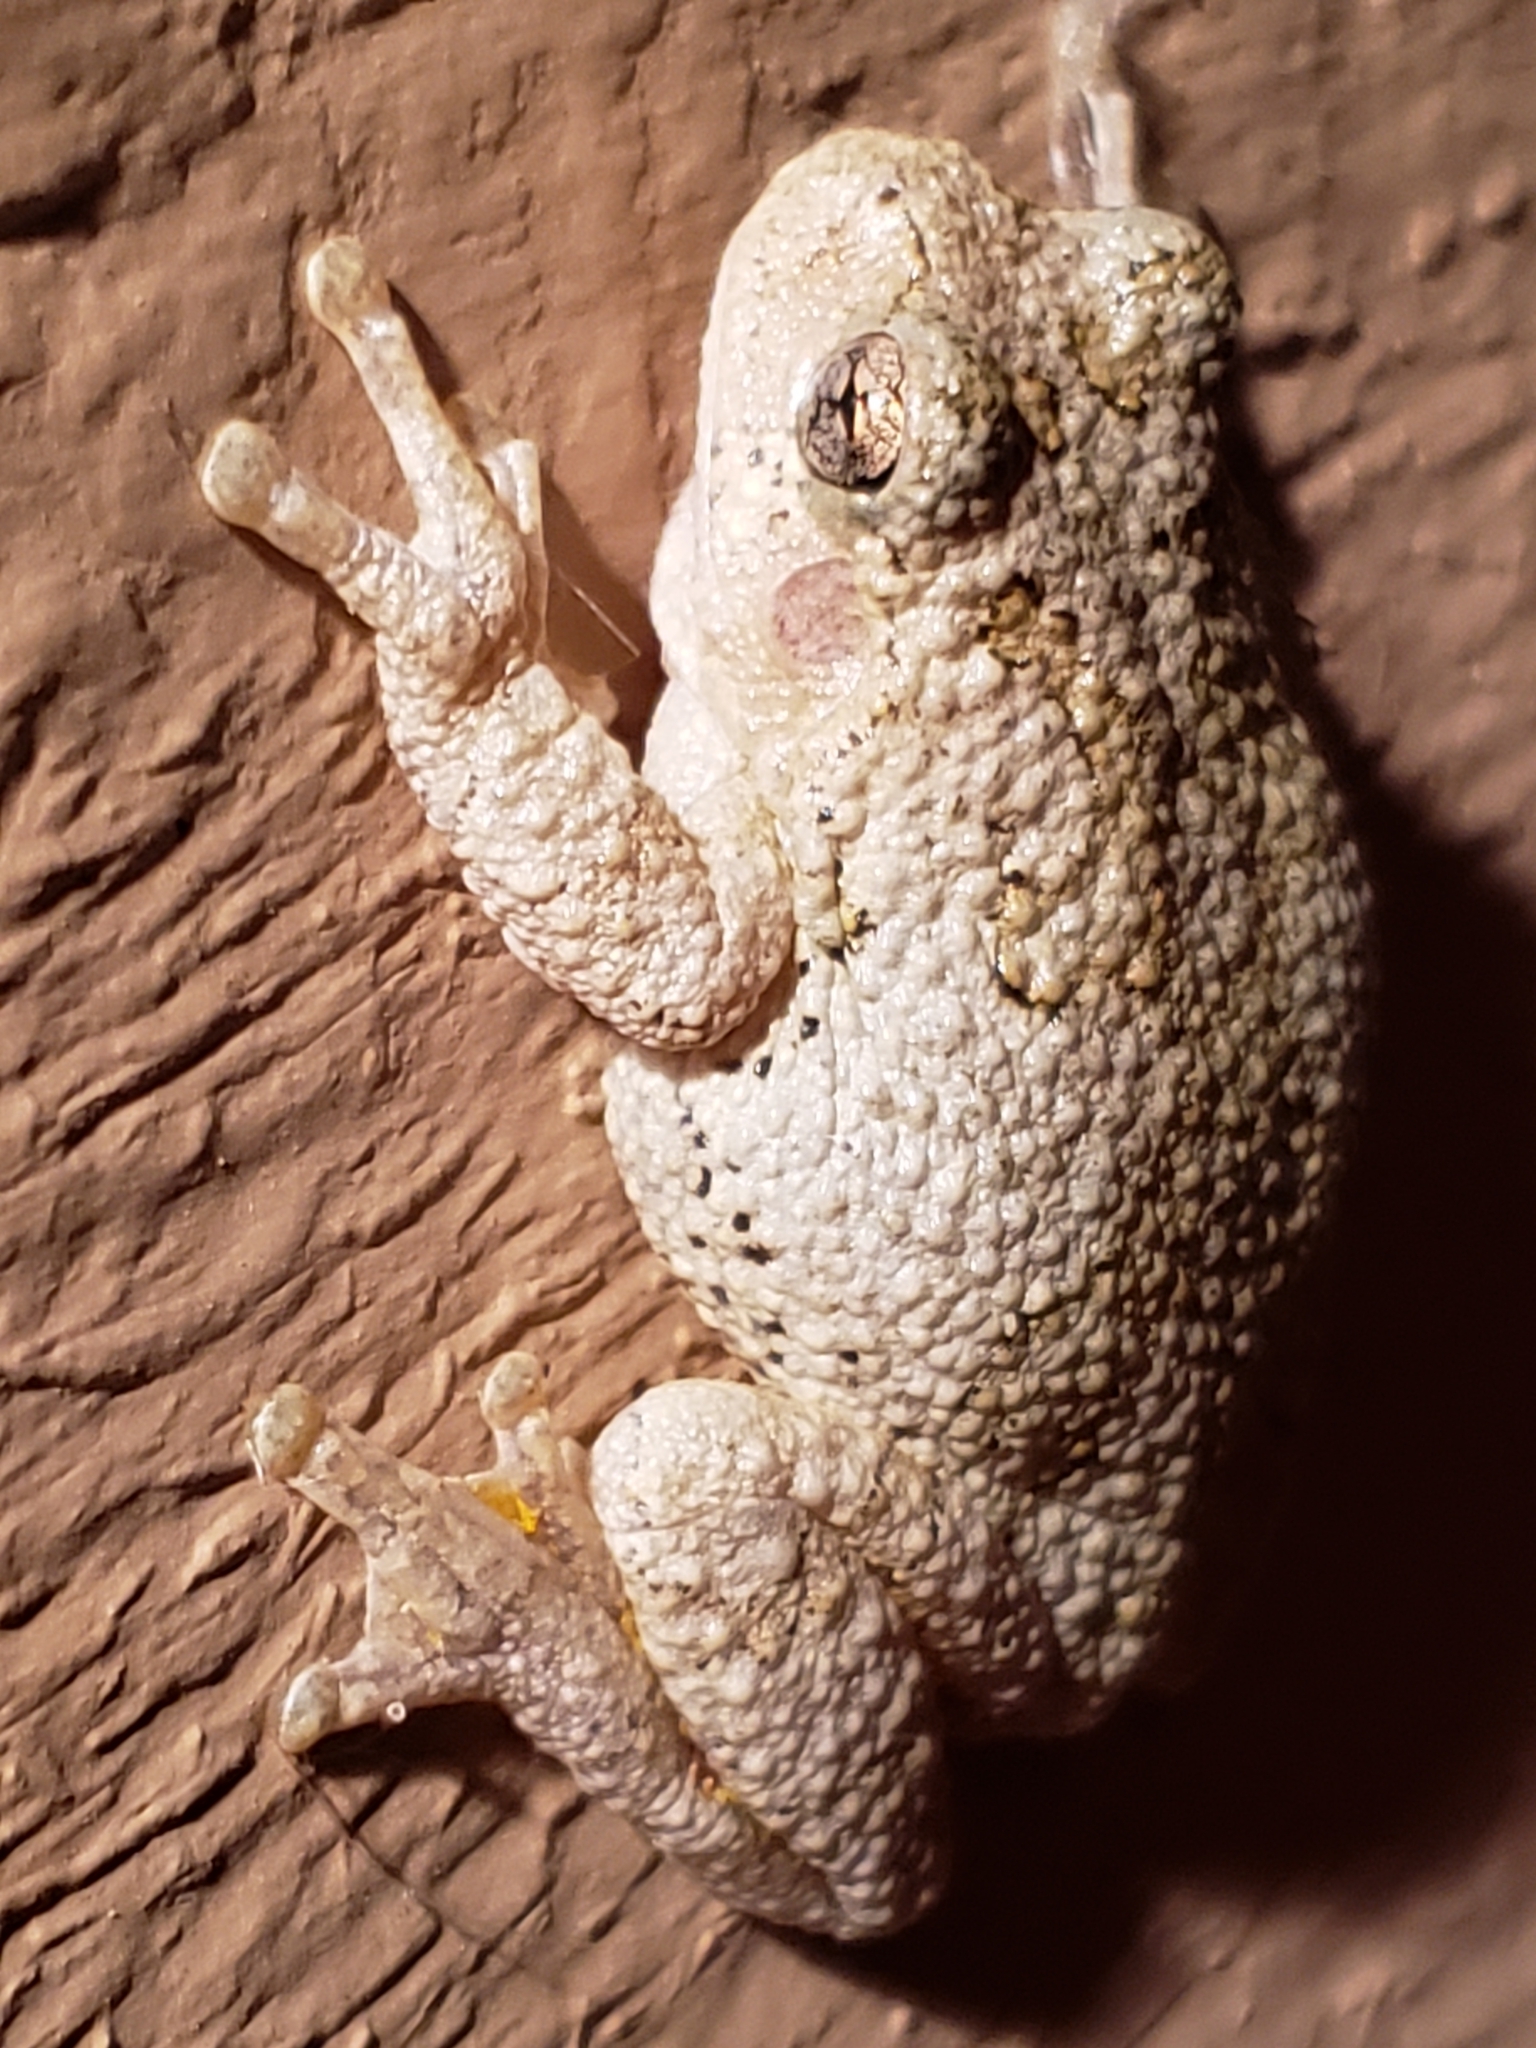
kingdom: Animalia
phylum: Chordata
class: Amphibia
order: Anura
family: Hylidae
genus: Hyla
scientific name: Hyla
